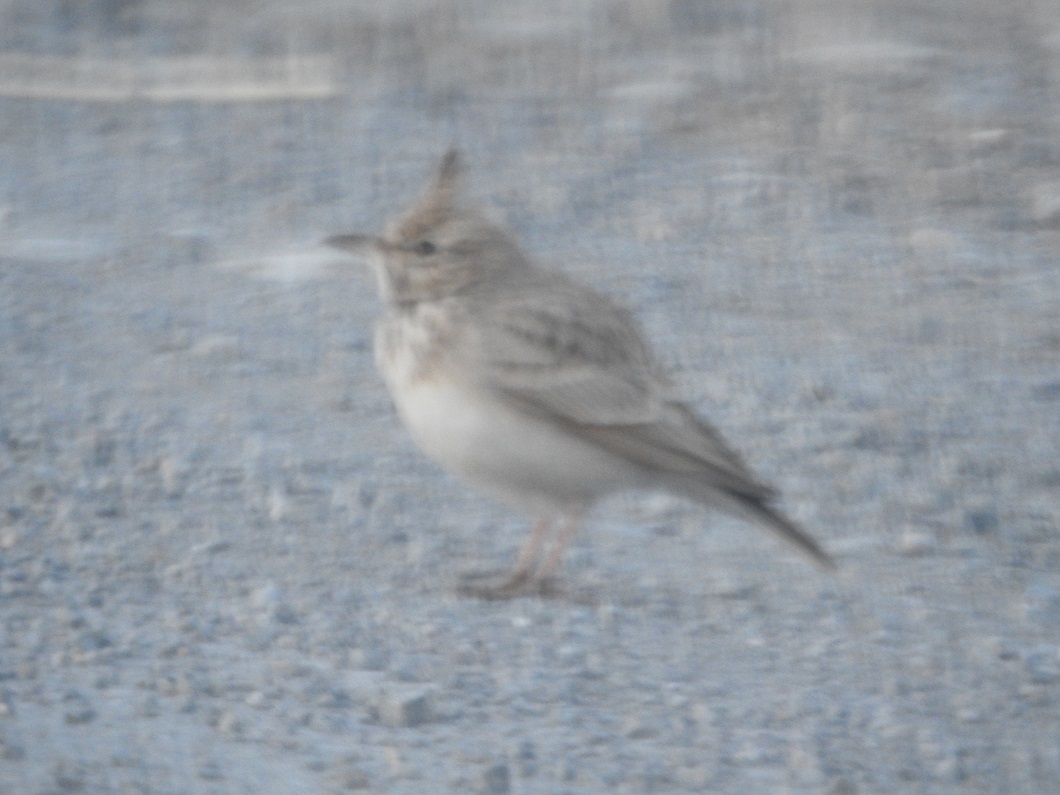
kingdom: Animalia
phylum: Chordata
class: Aves
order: Passeriformes
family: Alaudidae
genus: Galerida
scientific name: Galerida cristata
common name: Crested lark
